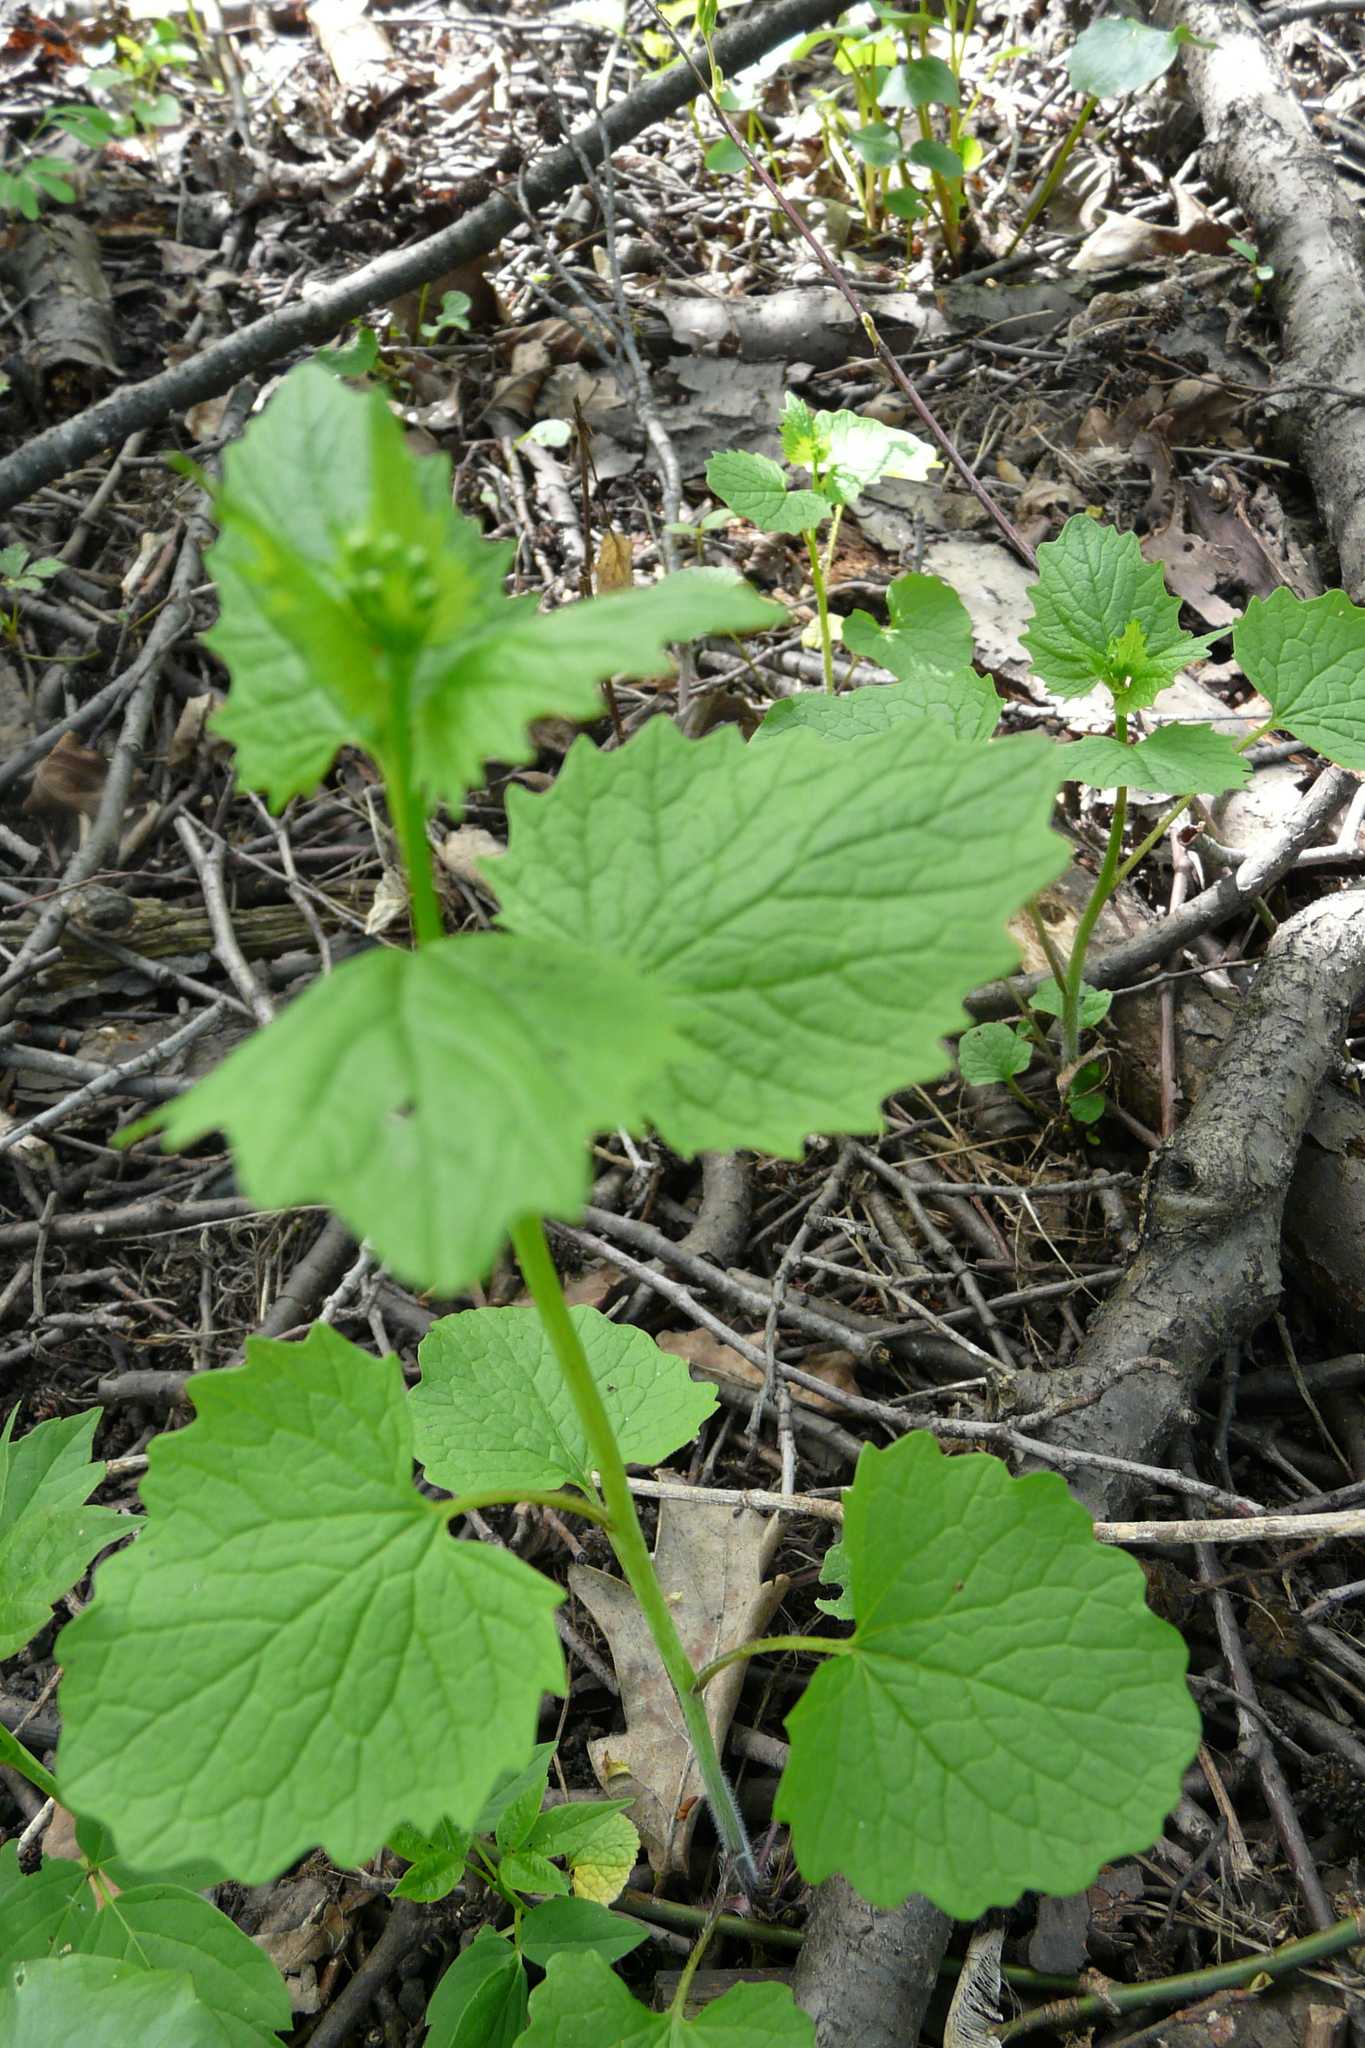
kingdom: Plantae
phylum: Tracheophyta
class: Magnoliopsida
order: Brassicales
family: Brassicaceae
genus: Alliaria
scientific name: Alliaria petiolata
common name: Garlic mustard
